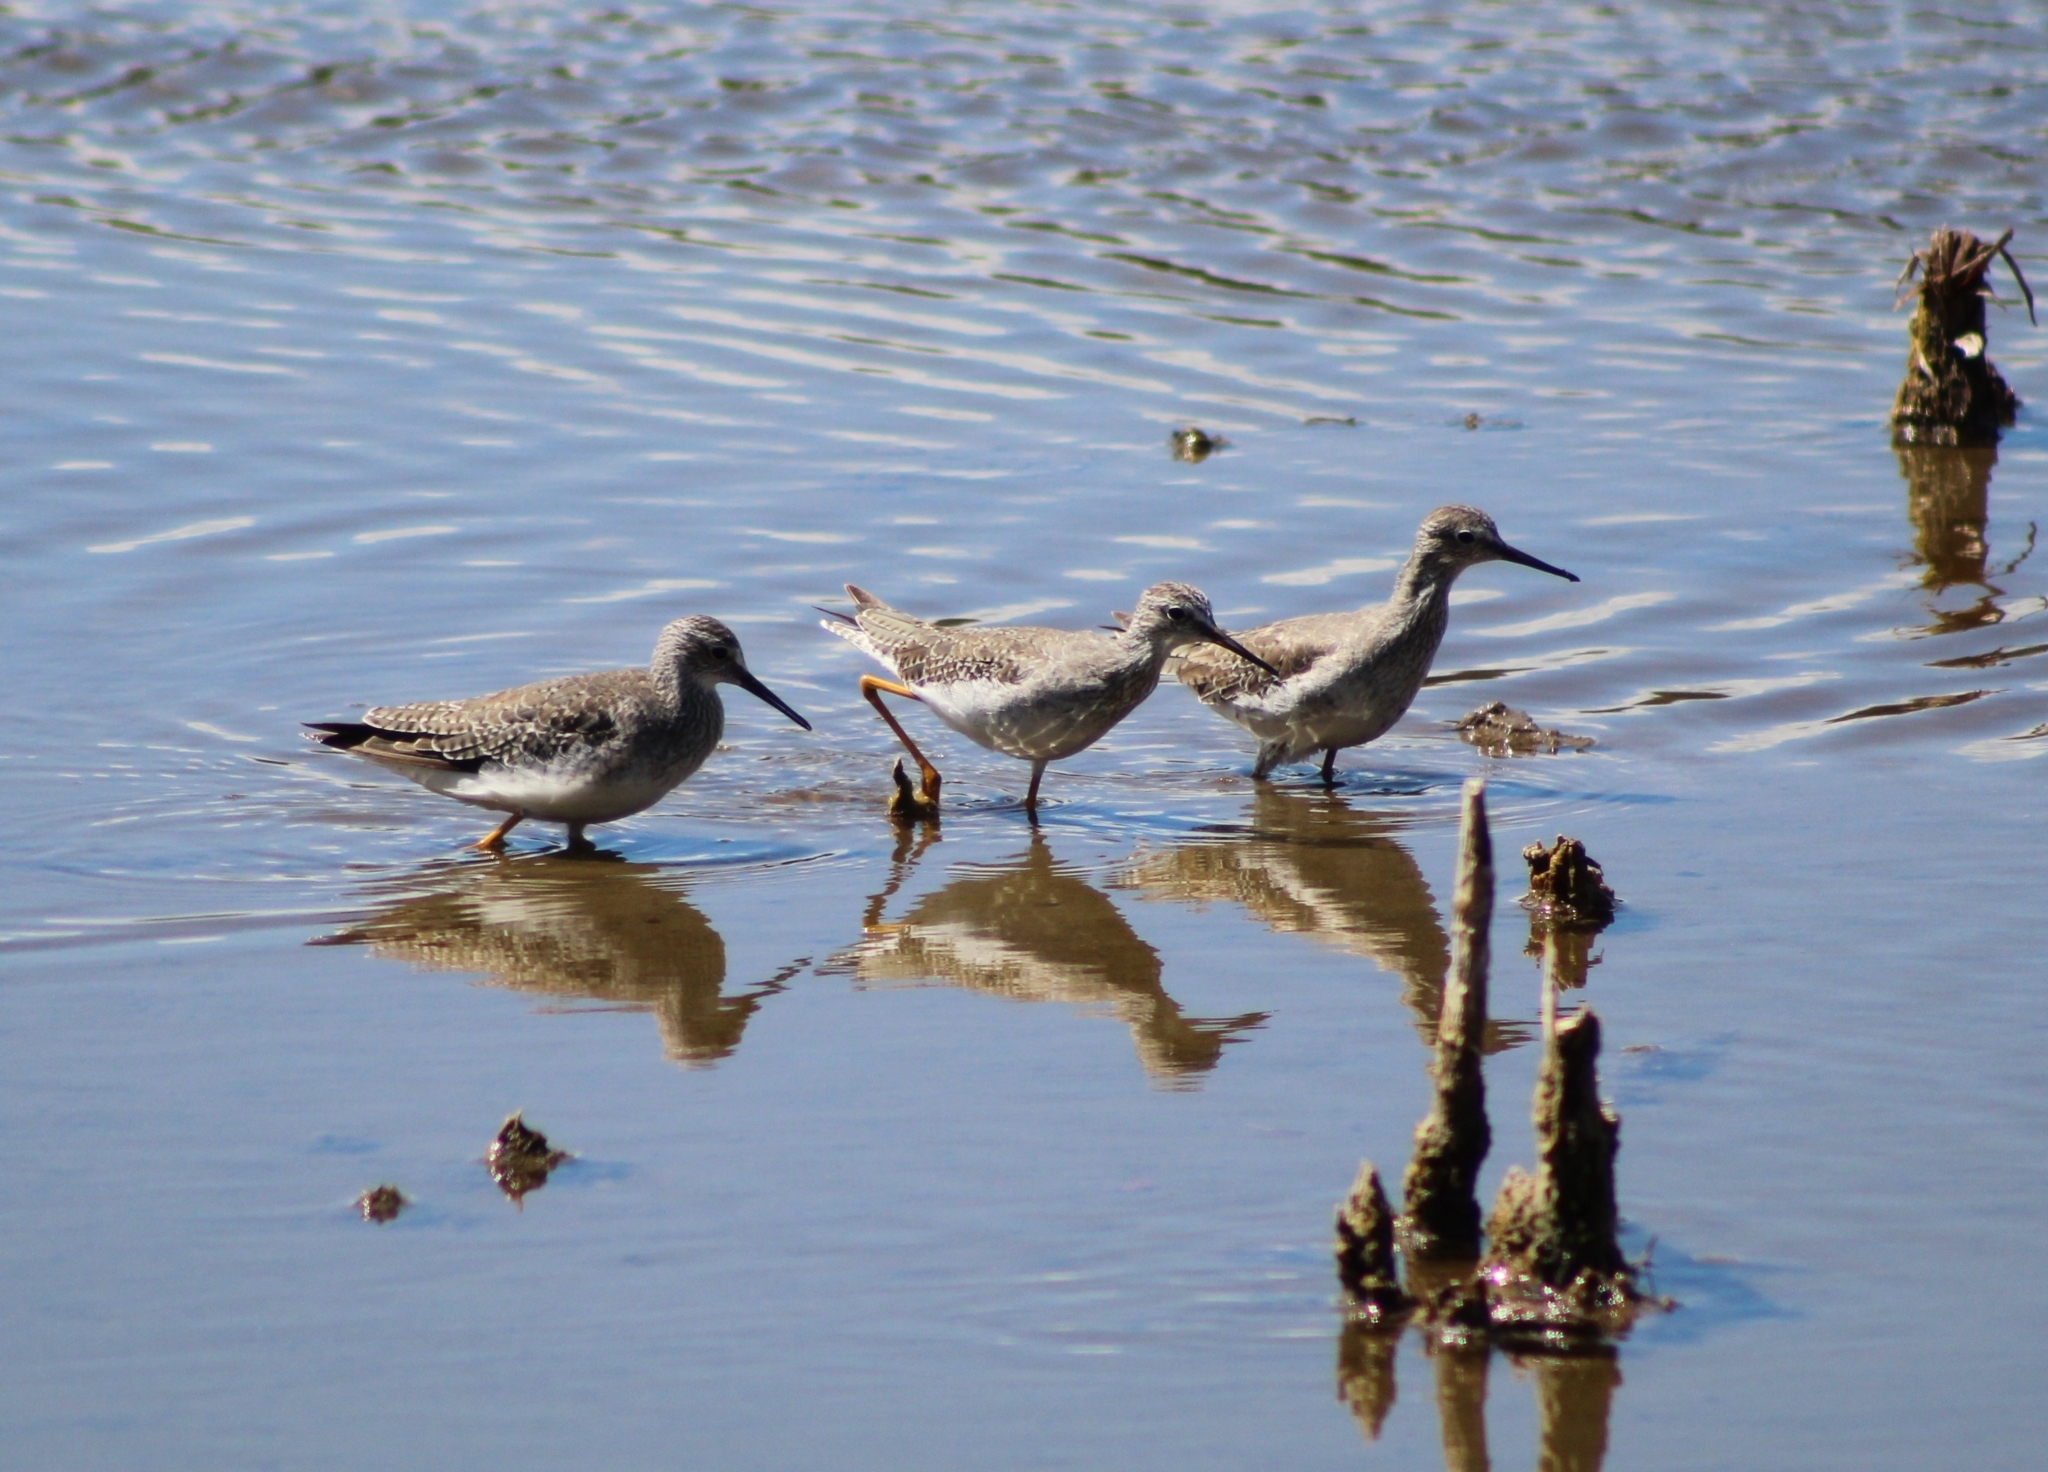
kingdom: Animalia
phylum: Chordata
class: Aves
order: Charadriiformes
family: Scolopacidae
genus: Tringa
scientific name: Tringa flavipes
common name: Lesser yellowlegs
